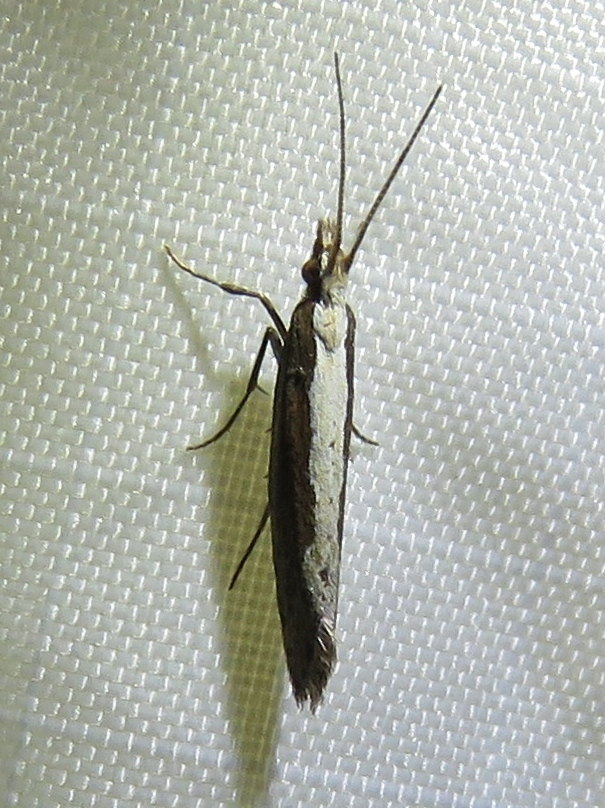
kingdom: Animalia
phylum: Arthropoda
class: Insecta
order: Lepidoptera
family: Plutellidae
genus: Plutella
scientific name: Plutella xylostella
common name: Diamond-back moth
